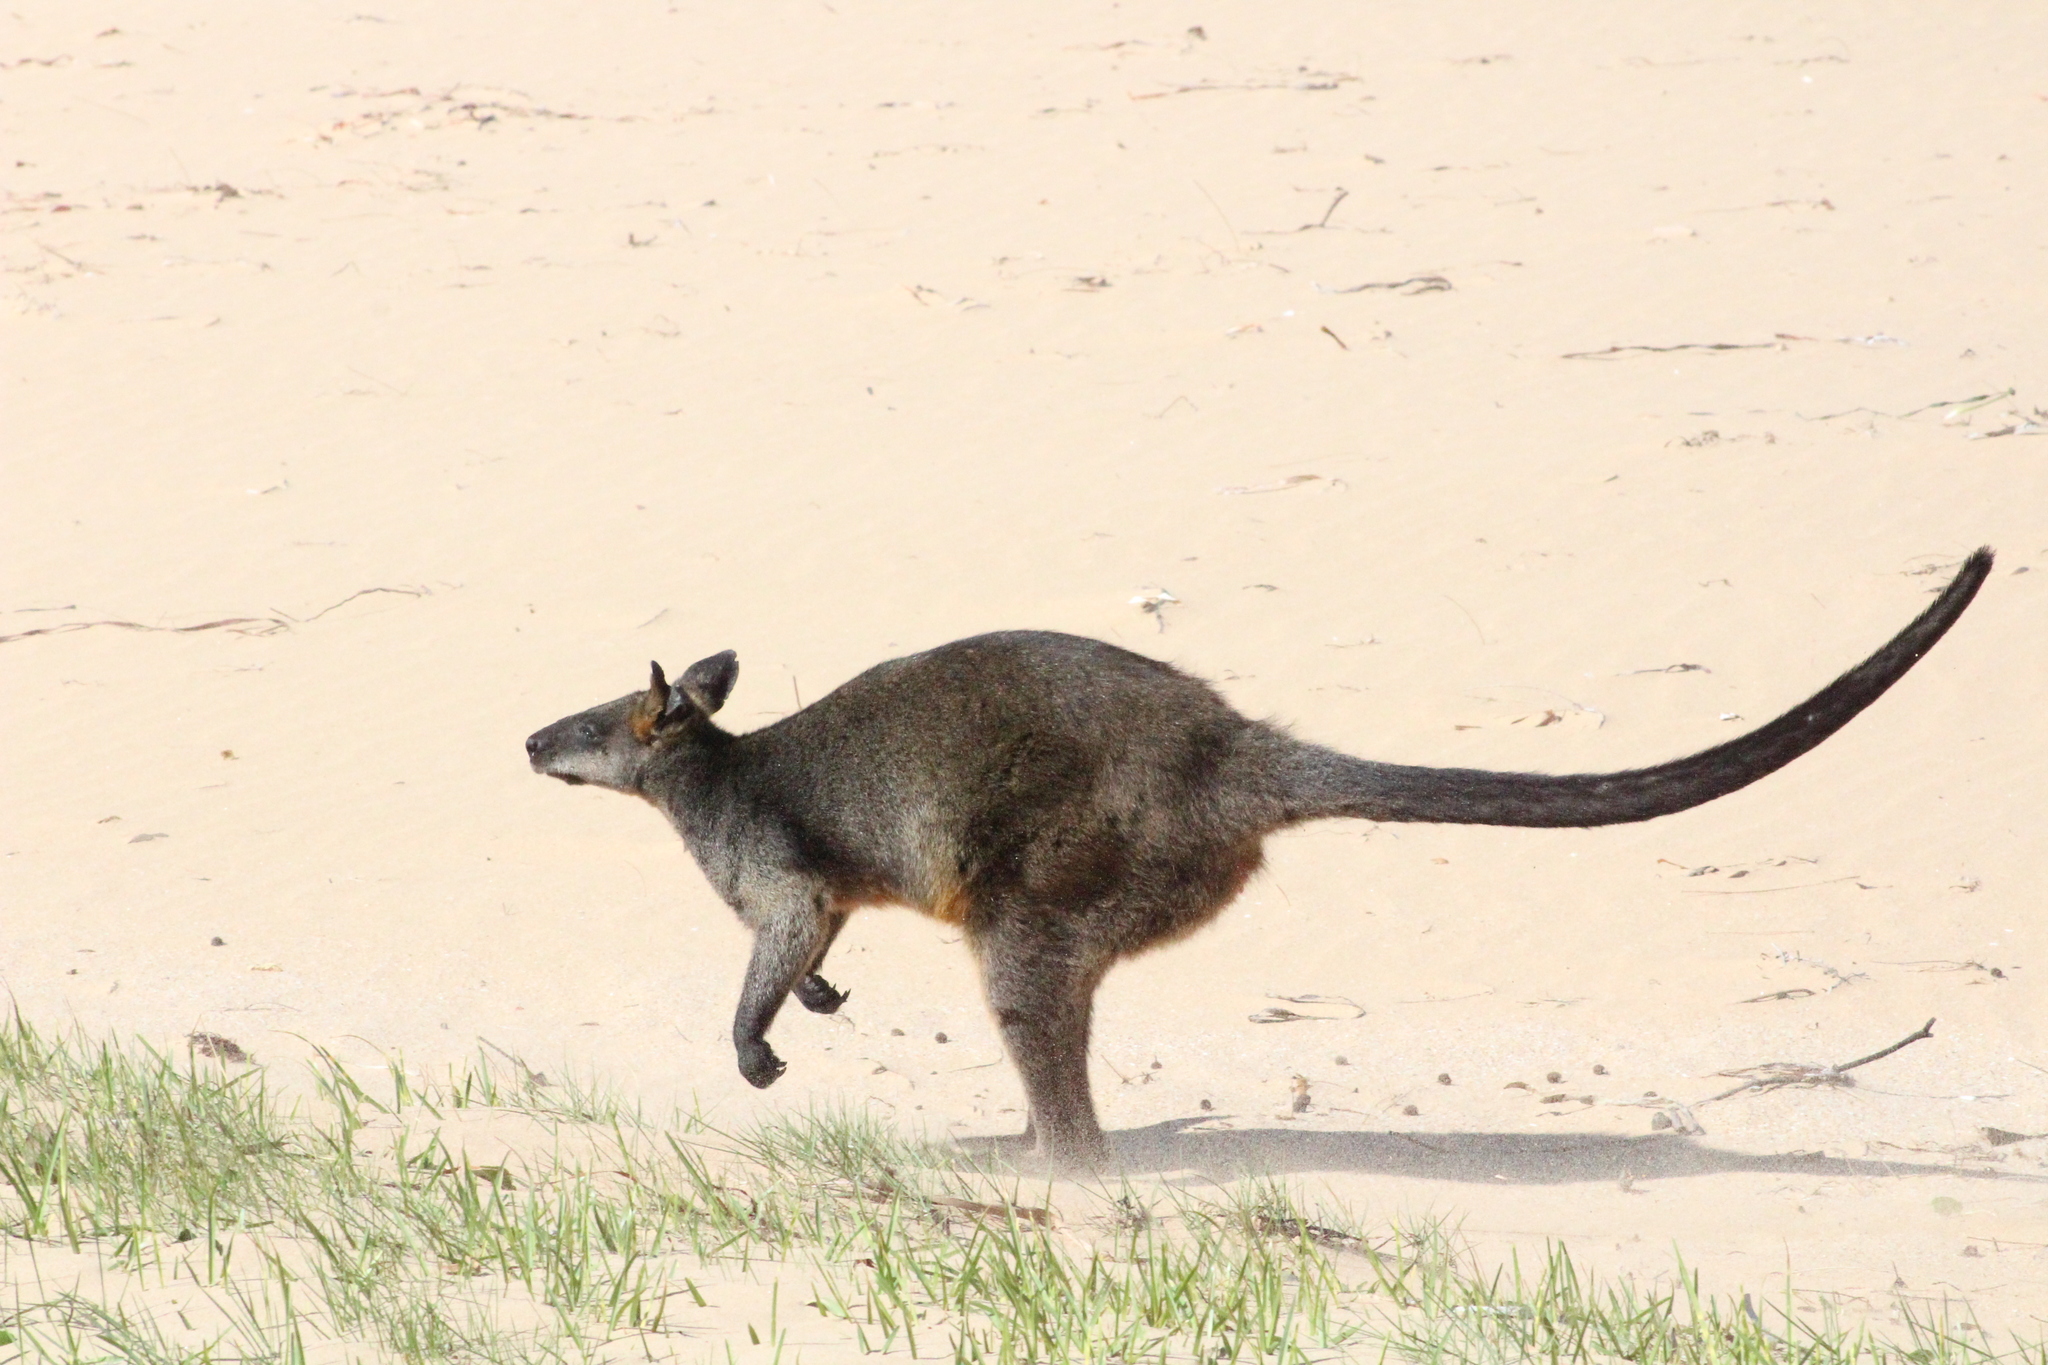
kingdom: Animalia
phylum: Chordata
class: Mammalia
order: Diprotodontia
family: Macropodidae
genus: Wallabia
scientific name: Wallabia bicolor
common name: Swamp wallaby
